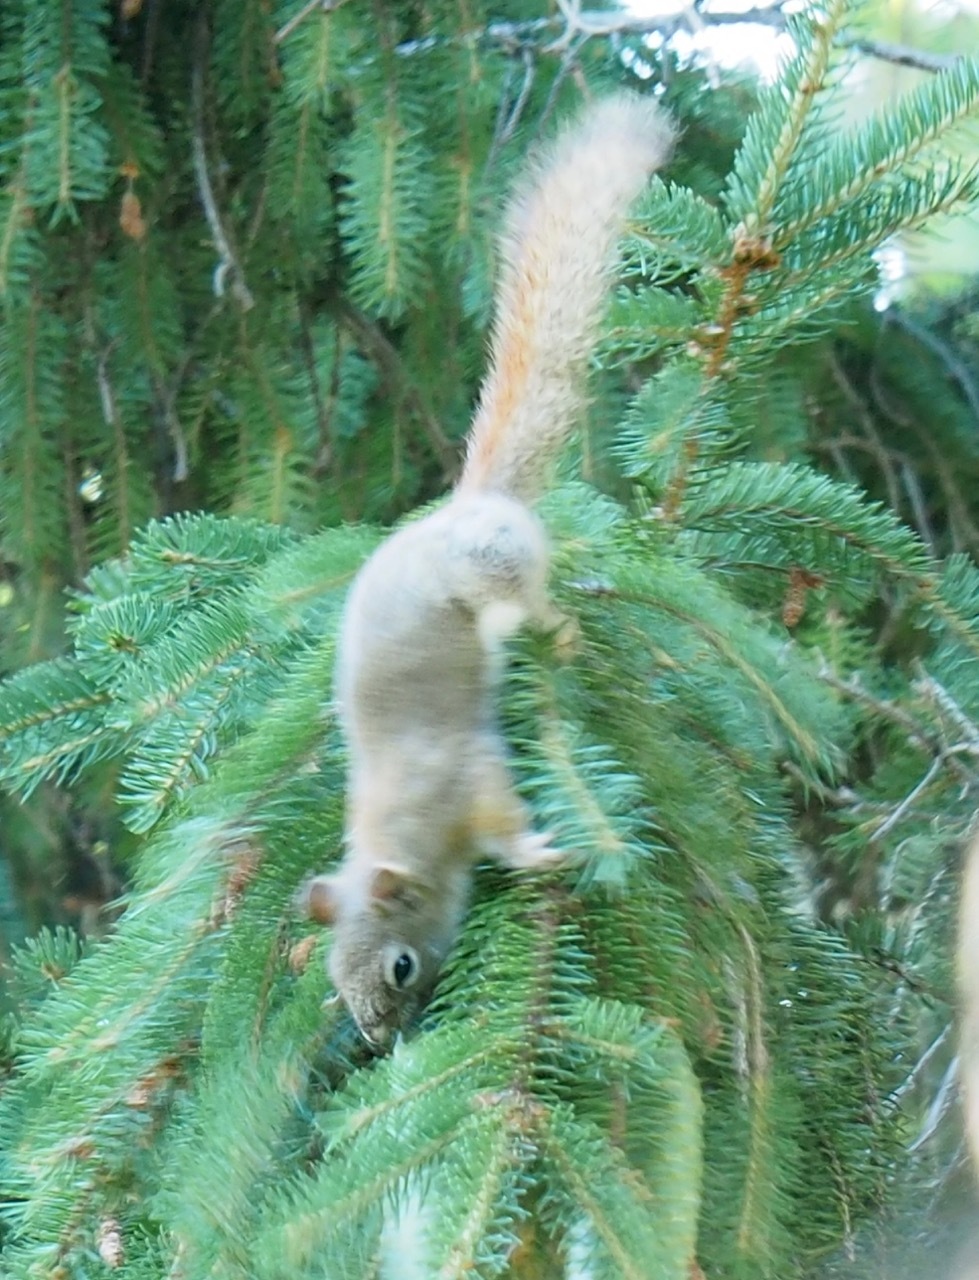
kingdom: Animalia
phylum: Chordata
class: Mammalia
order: Rodentia
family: Sciuridae
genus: Tamiasciurus
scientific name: Tamiasciurus hudsonicus
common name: Red squirrel
